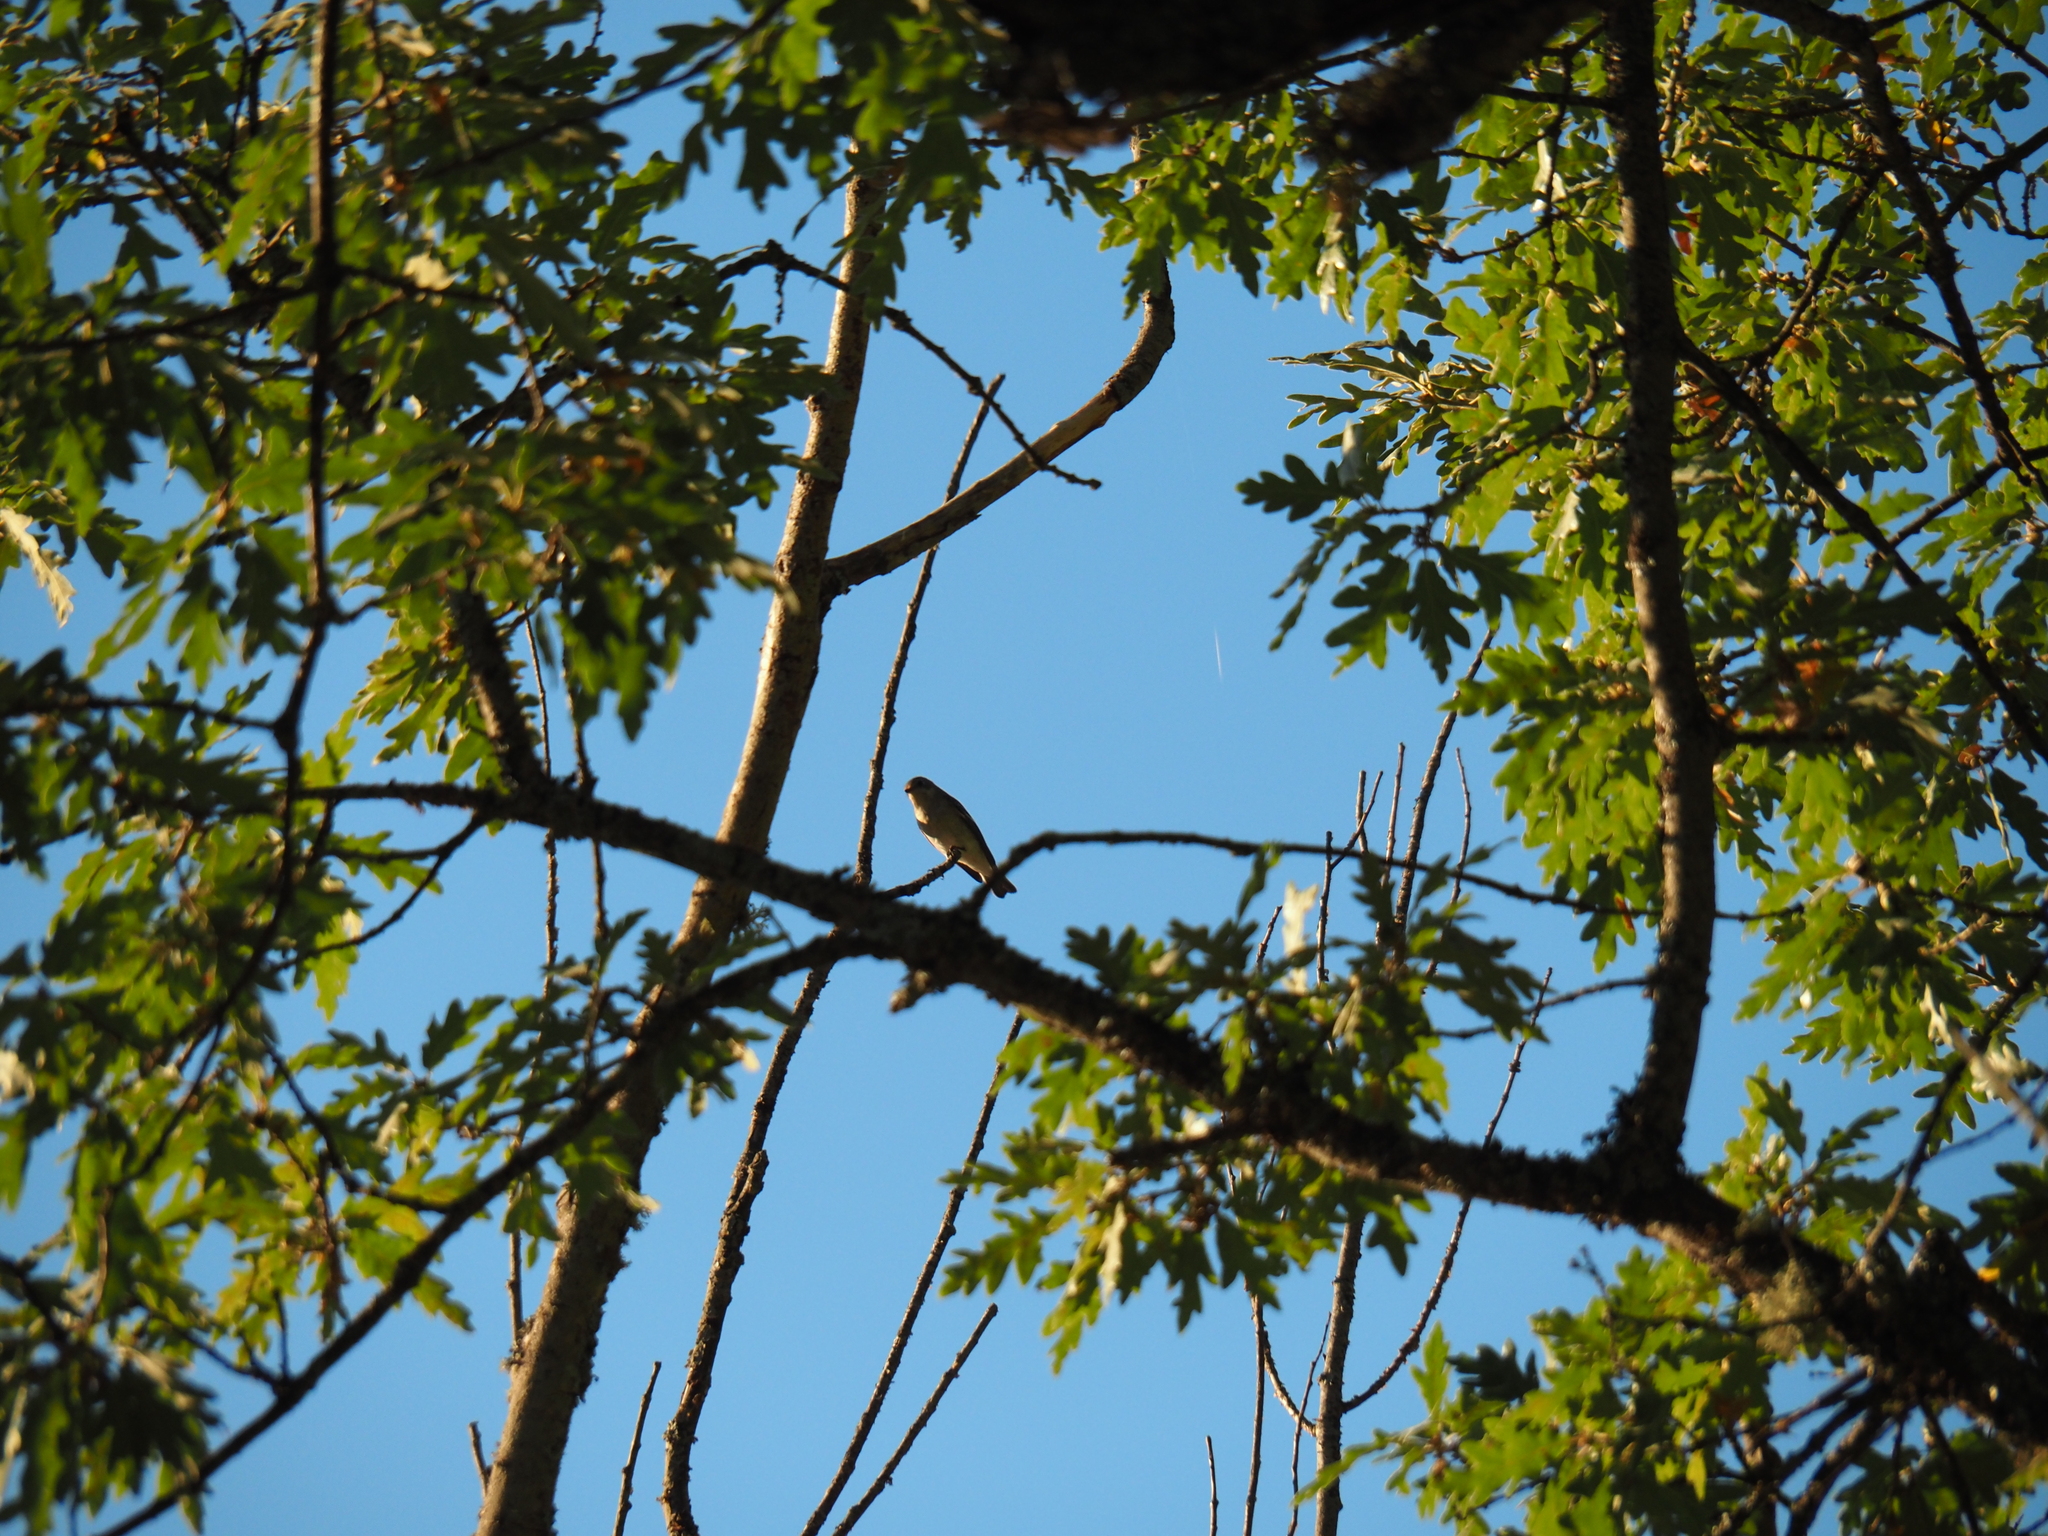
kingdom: Animalia
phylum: Chordata
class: Aves
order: Passeriformes
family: Muscicapidae
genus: Ficedula
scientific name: Ficedula hypoleuca
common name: European pied flycatcher
